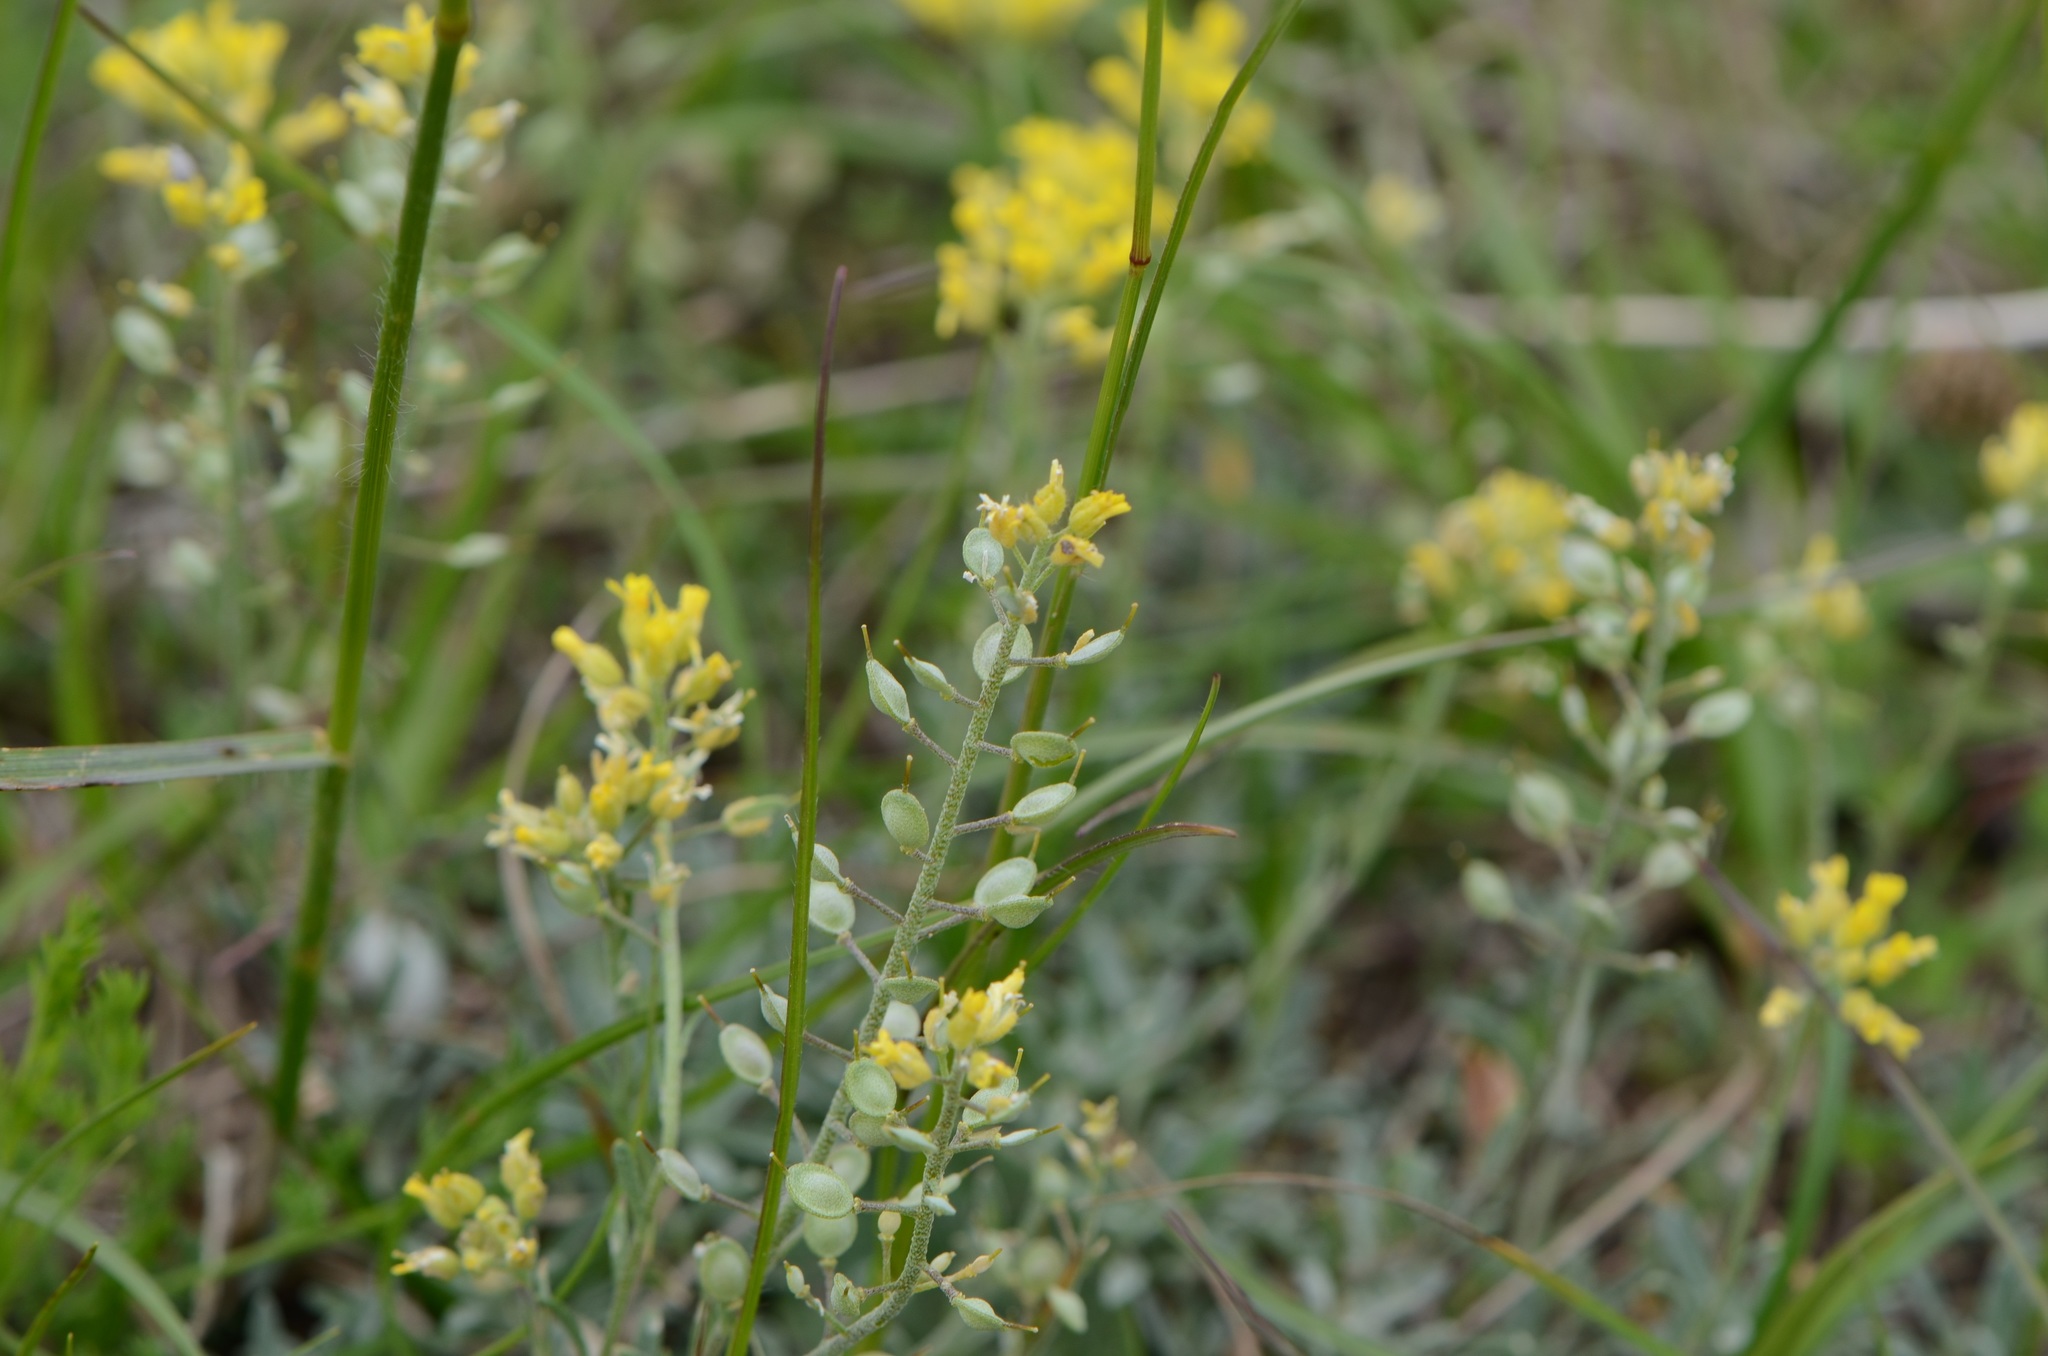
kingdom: Plantae
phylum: Tracheophyta
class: Magnoliopsida
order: Brassicales
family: Brassicaceae
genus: Alyssum
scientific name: Alyssum alyssoides
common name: Small alison
